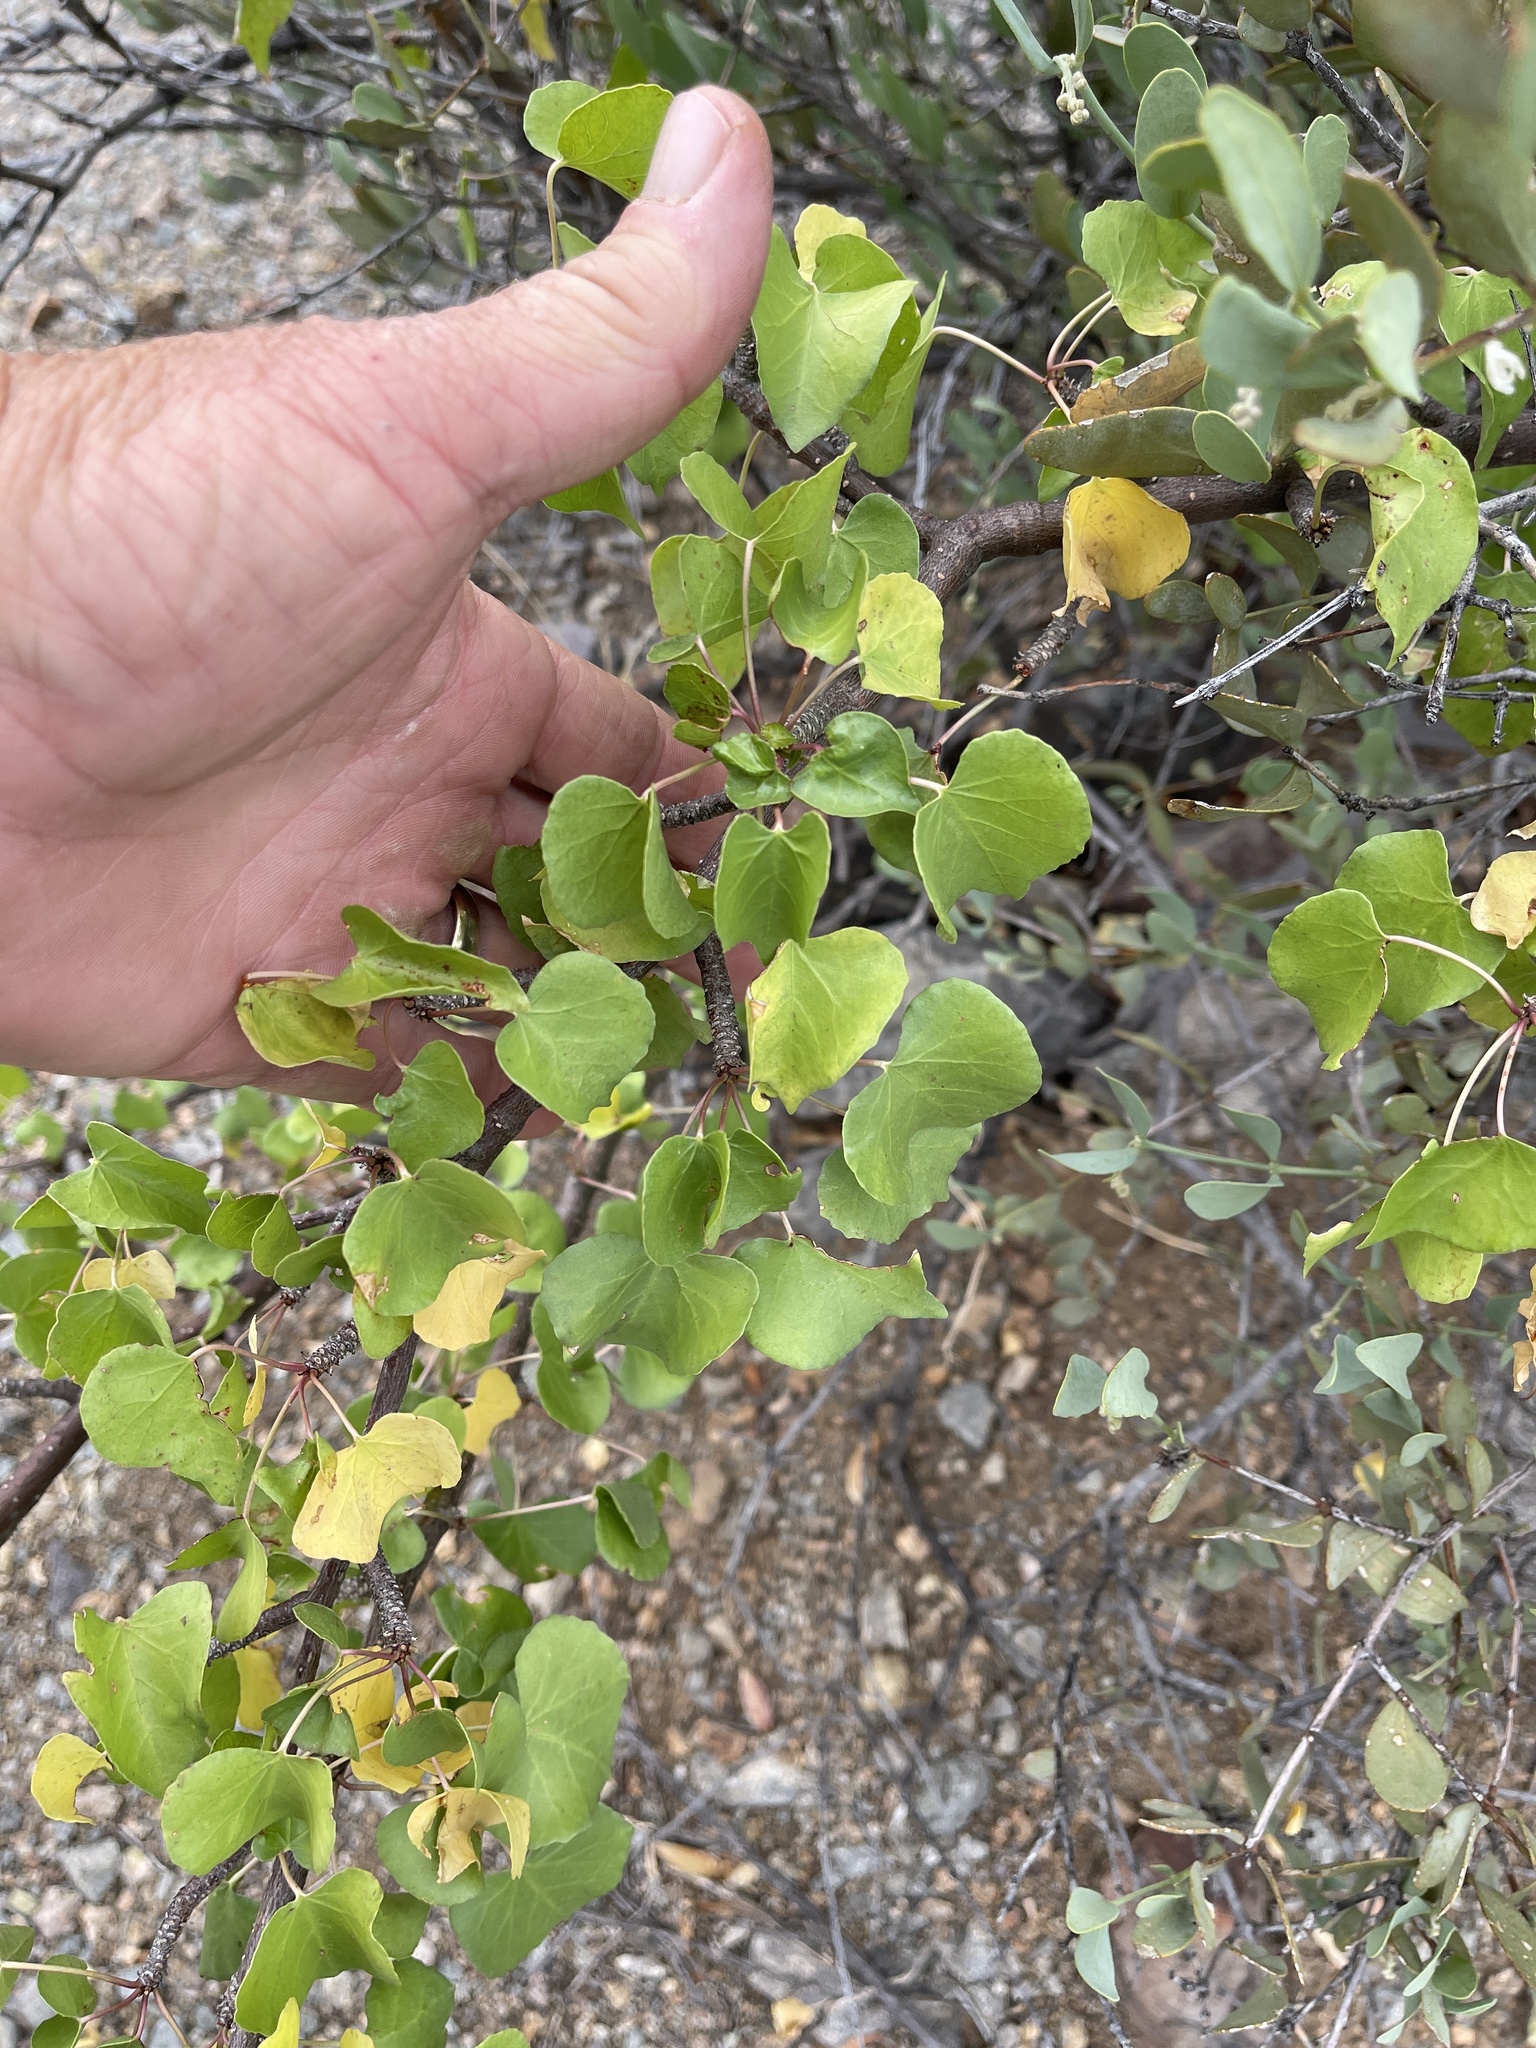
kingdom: Plantae
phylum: Tracheophyta
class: Magnoliopsida
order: Malpighiales
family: Euphorbiaceae
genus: Jatropha
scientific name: Jatropha cardiophylla
